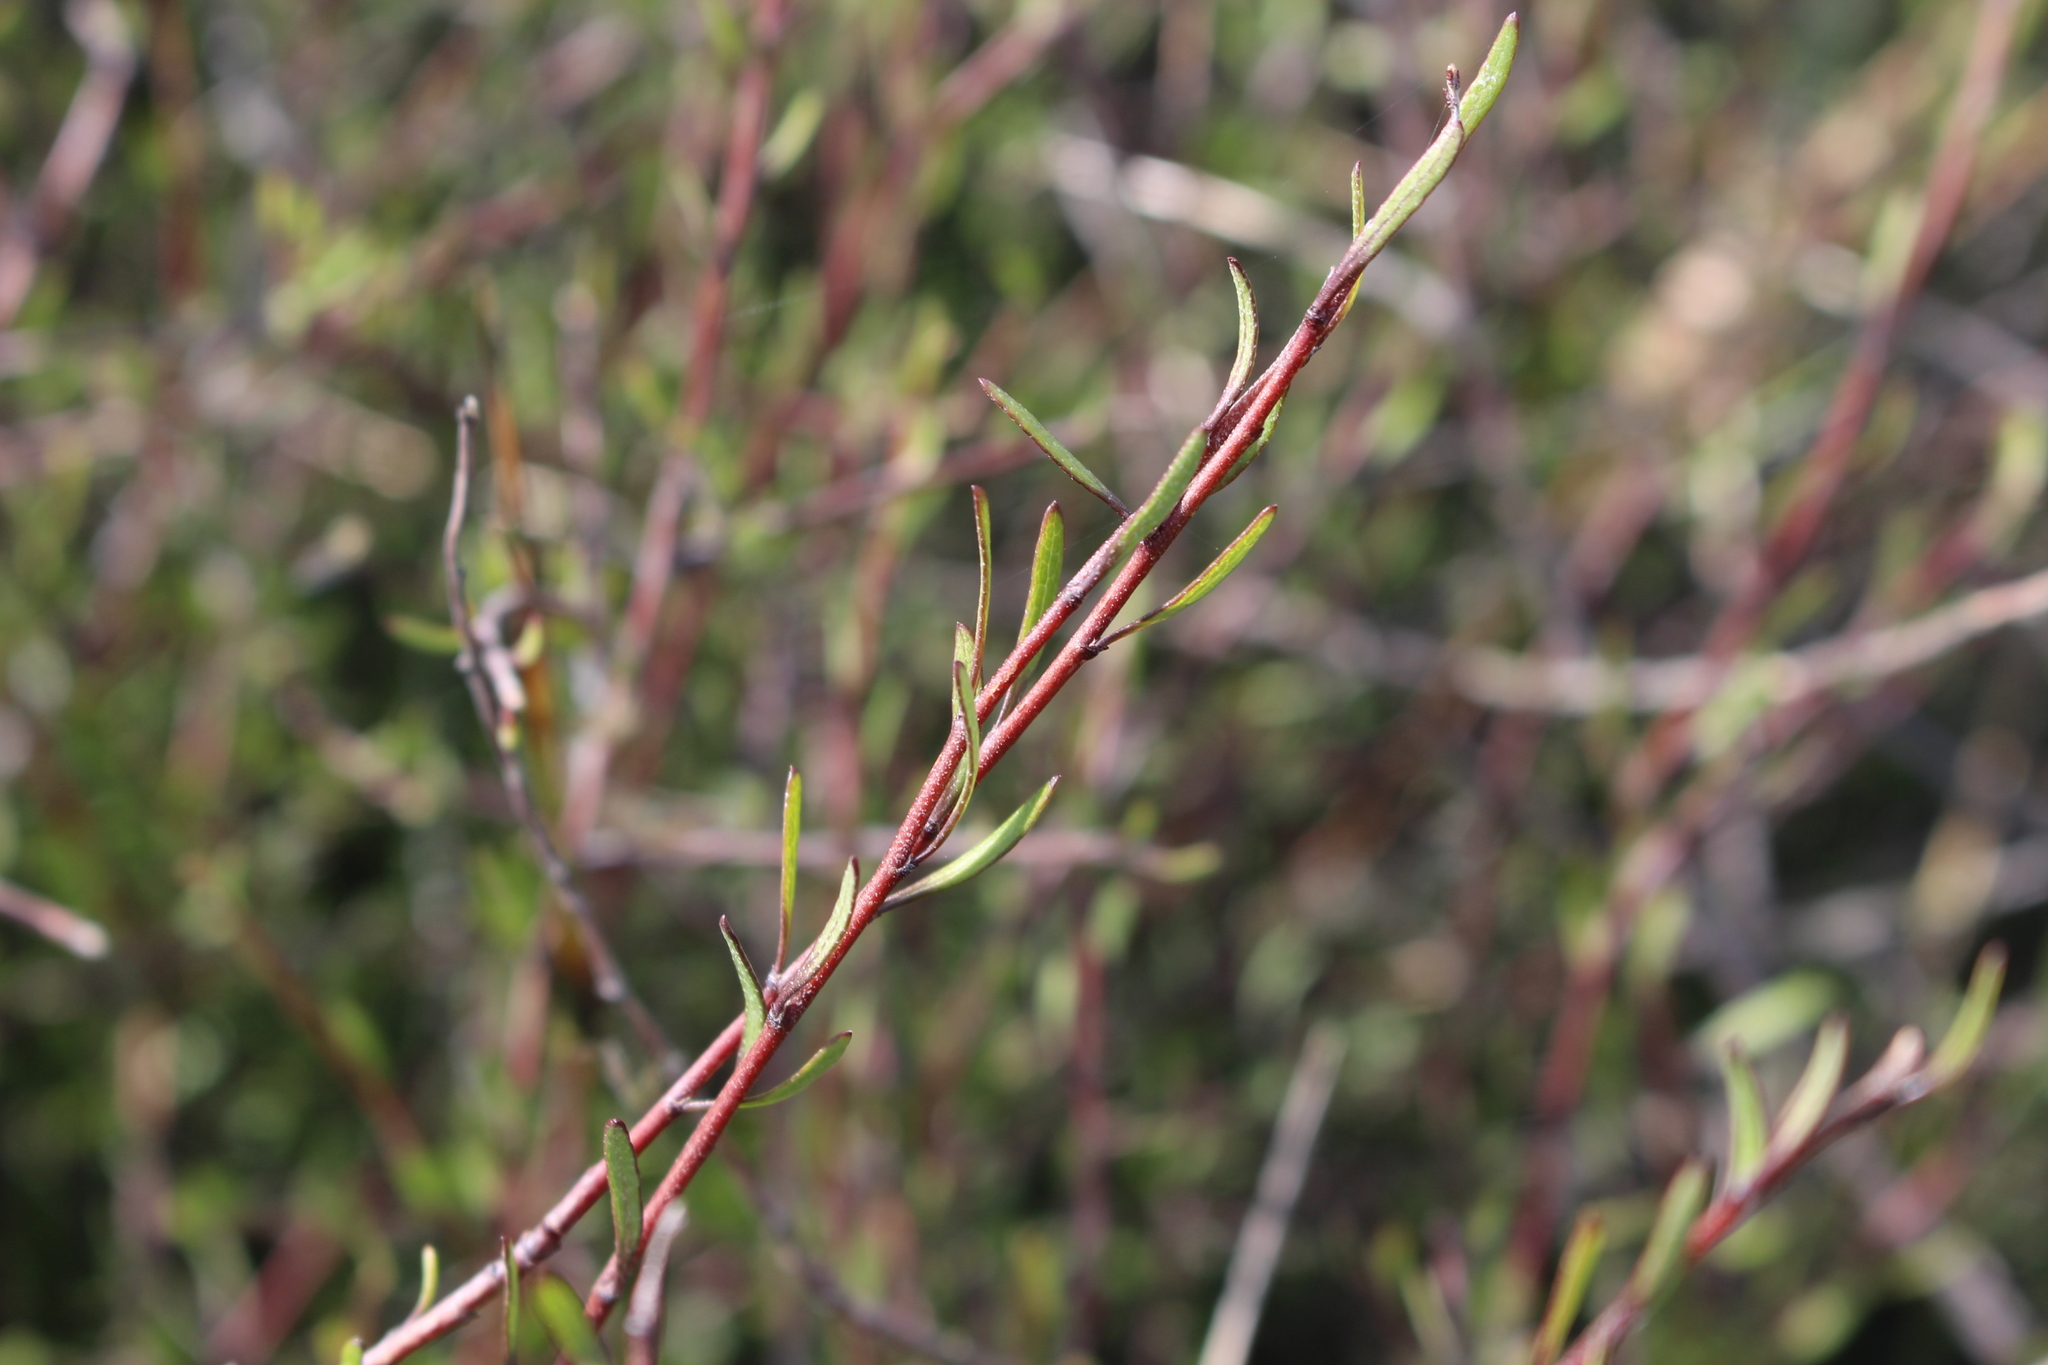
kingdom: Plantae
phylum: Tracheophyta
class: Magnoliopsida
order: Malvales
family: Malvaceae
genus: Plagianthus
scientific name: Plagianthus divaricatus
